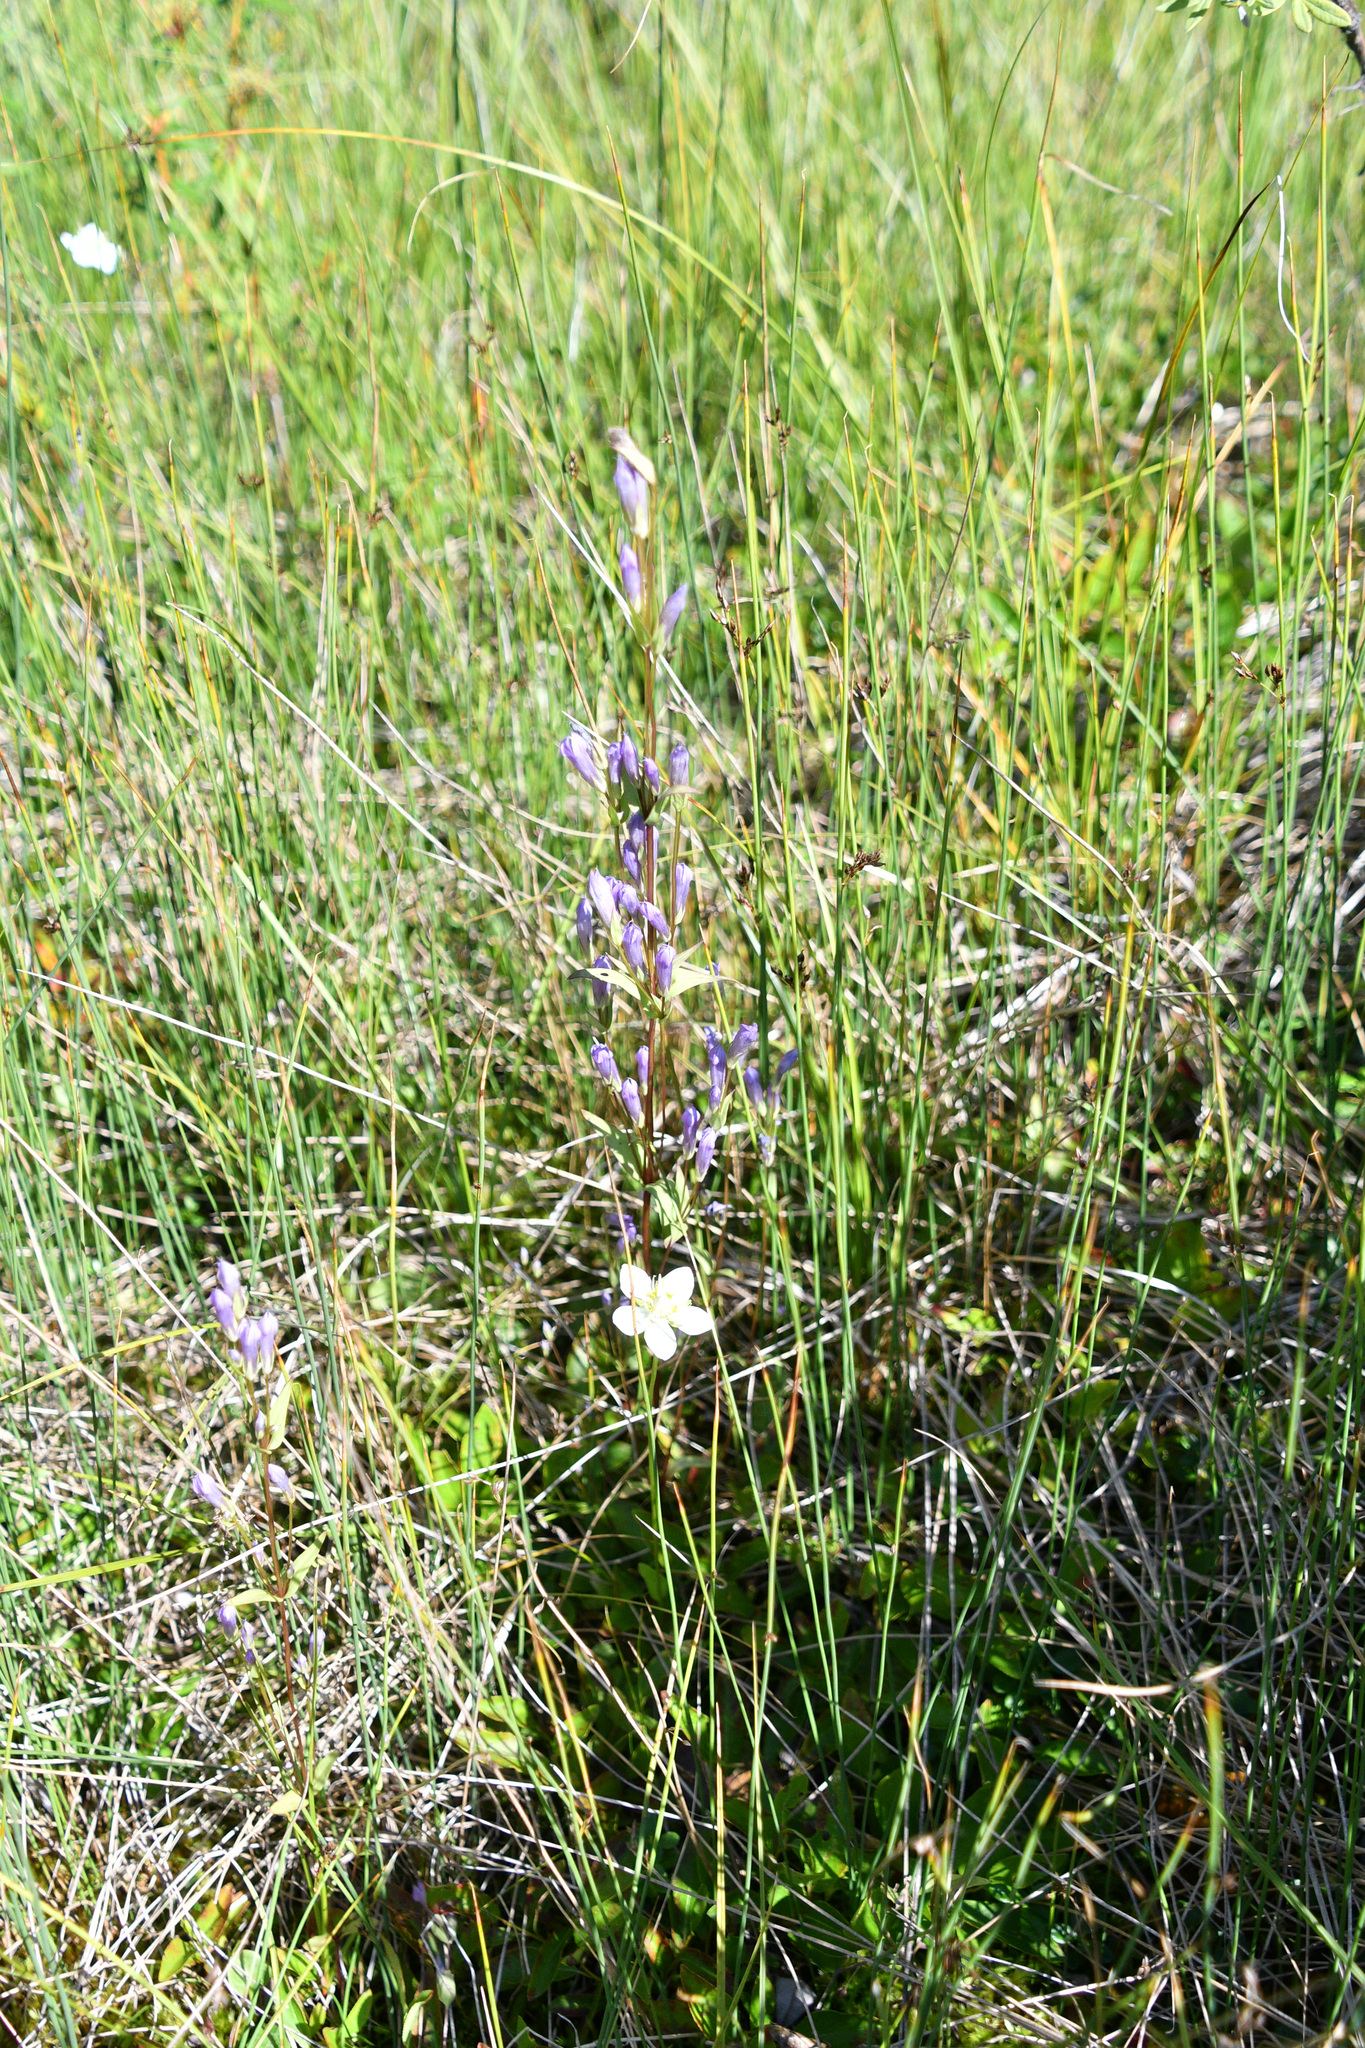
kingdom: Plantae
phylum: Tracheophyta
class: Magnoliopsida
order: Gentianales
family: Gentianaceae
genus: Gentianella
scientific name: Gentianella propinqua
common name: Four-parted dwarf-gentian
